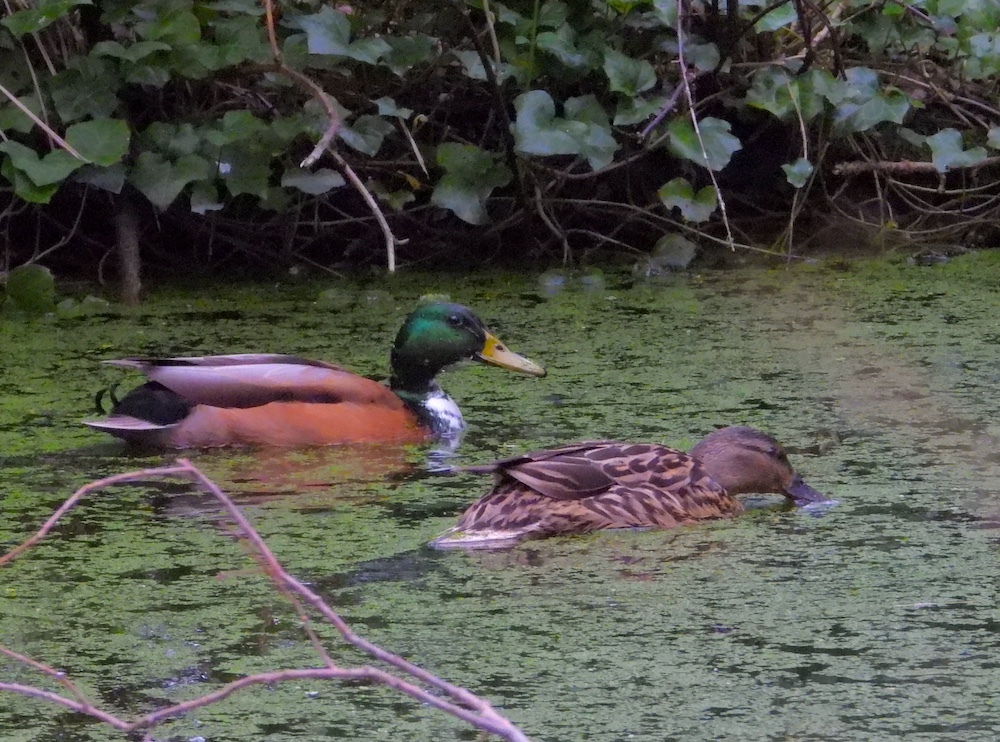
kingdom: Animalia
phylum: Chordata
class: Aves
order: Anseriformes
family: Anatidae
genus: Anas
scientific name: Anas platyrhynchos
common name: Mallard
